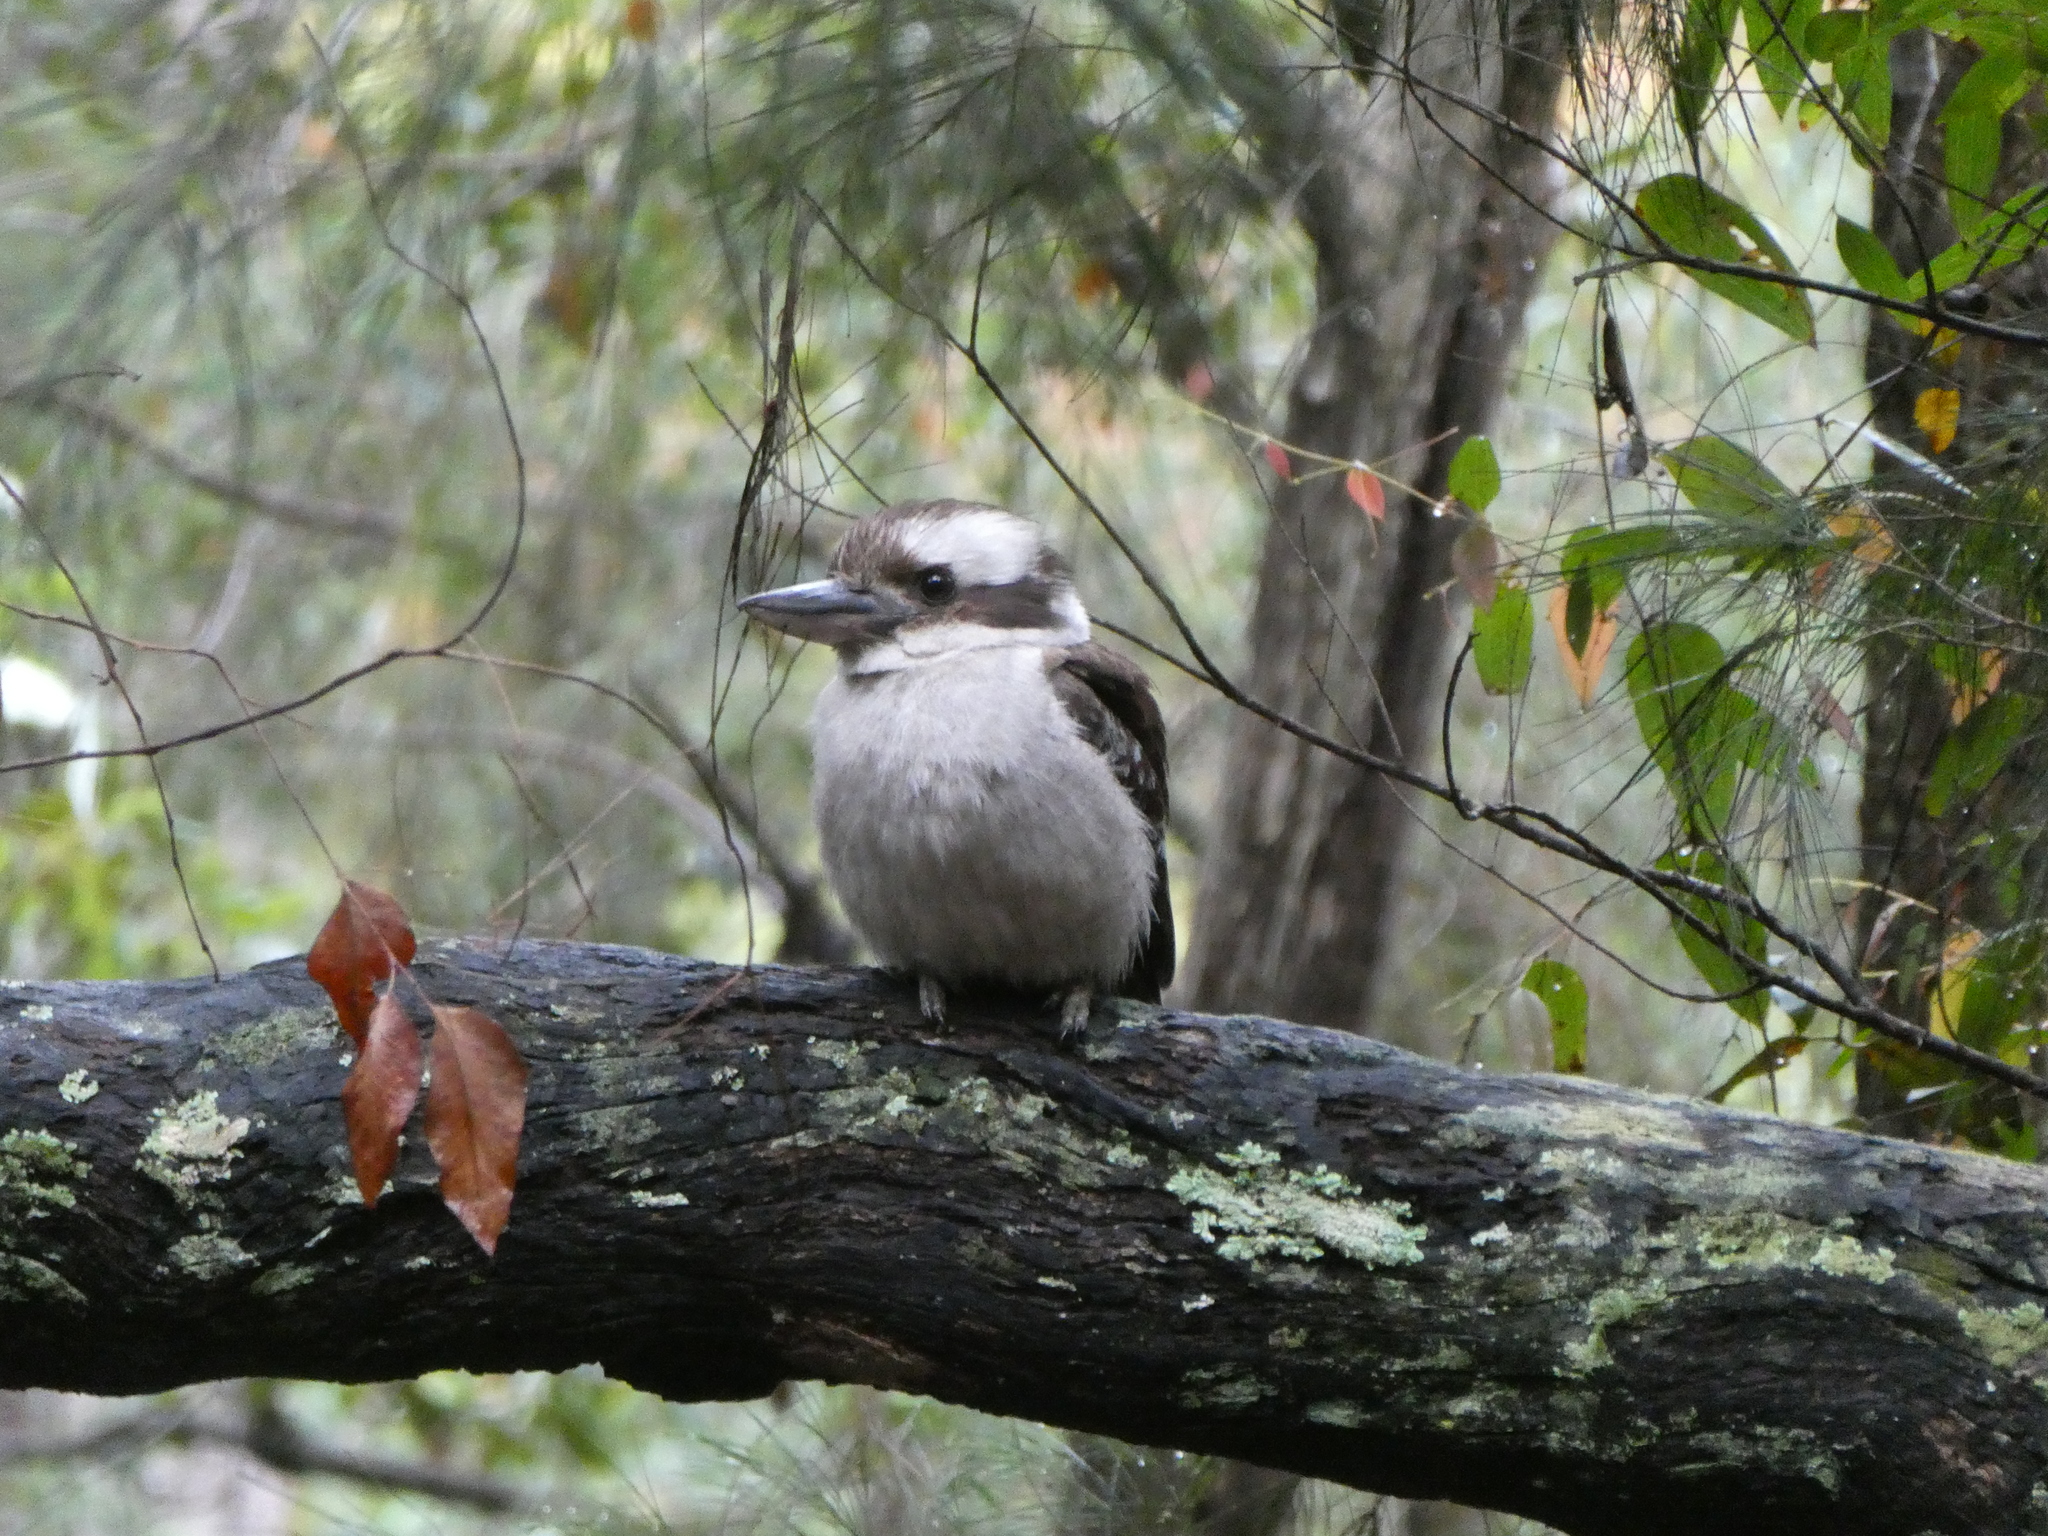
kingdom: Animalia
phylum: Chordata
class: Aves
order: Coraciiformes
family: Alcedinidae
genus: Dacelo
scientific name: Dacelo novaeguineae
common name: Laughing kookaburra
